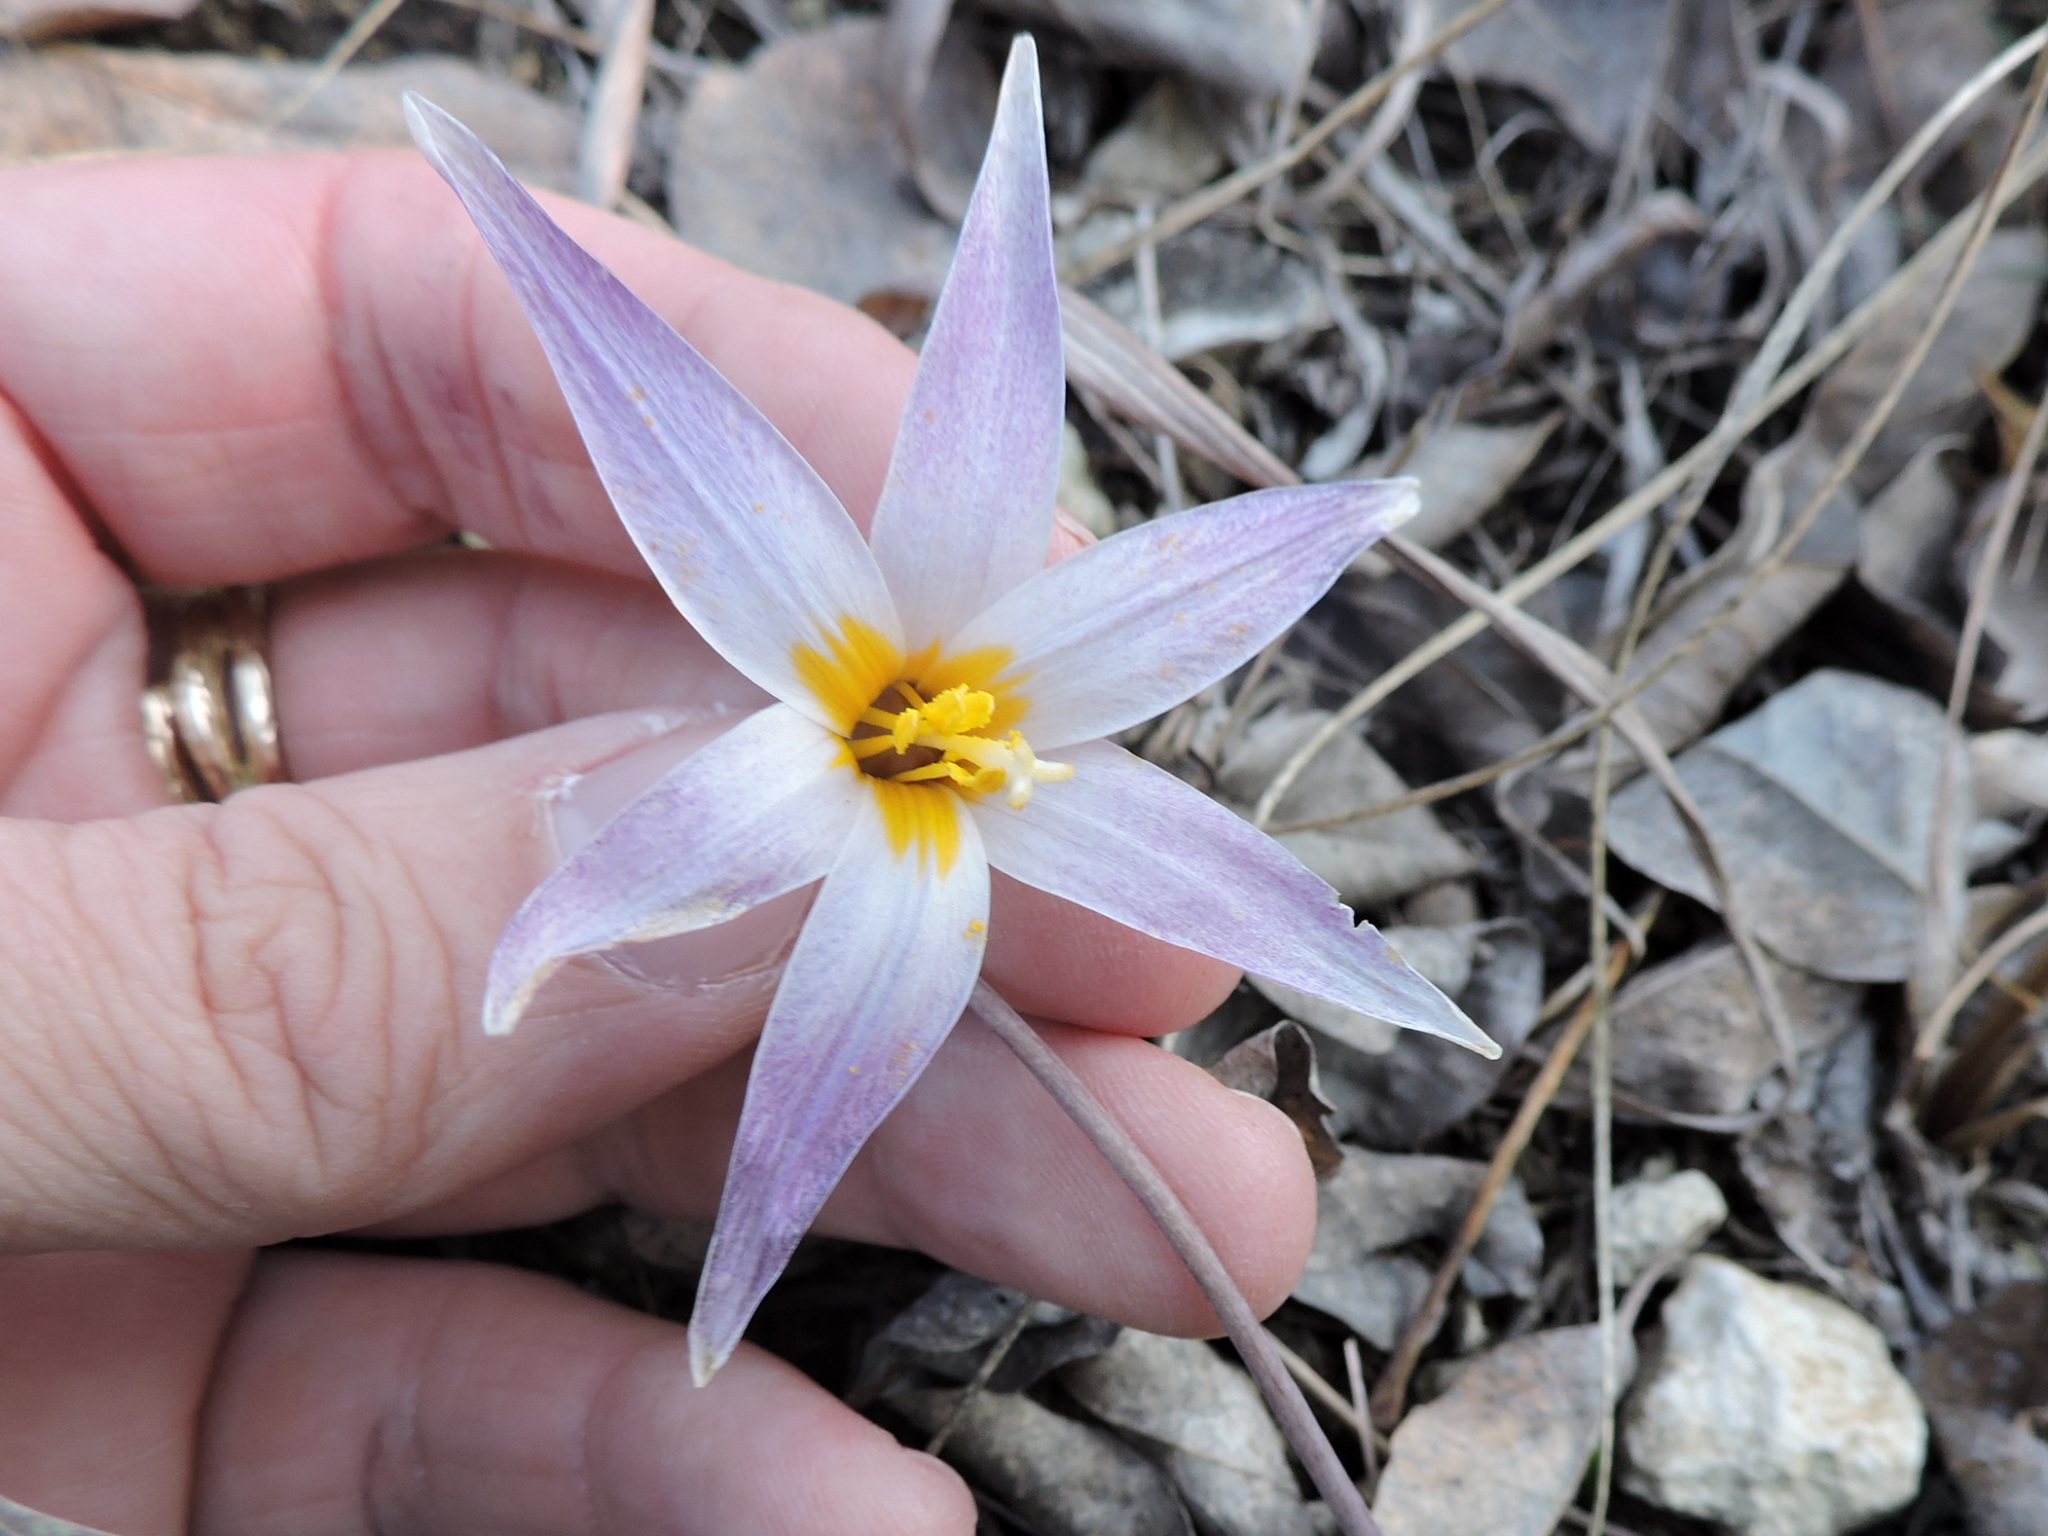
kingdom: Plantae
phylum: Tracheophyta
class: Liliopsida
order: Liliales
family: Liliaceae
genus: Erythronium
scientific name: Erythronium albidum
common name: White trout-lily
